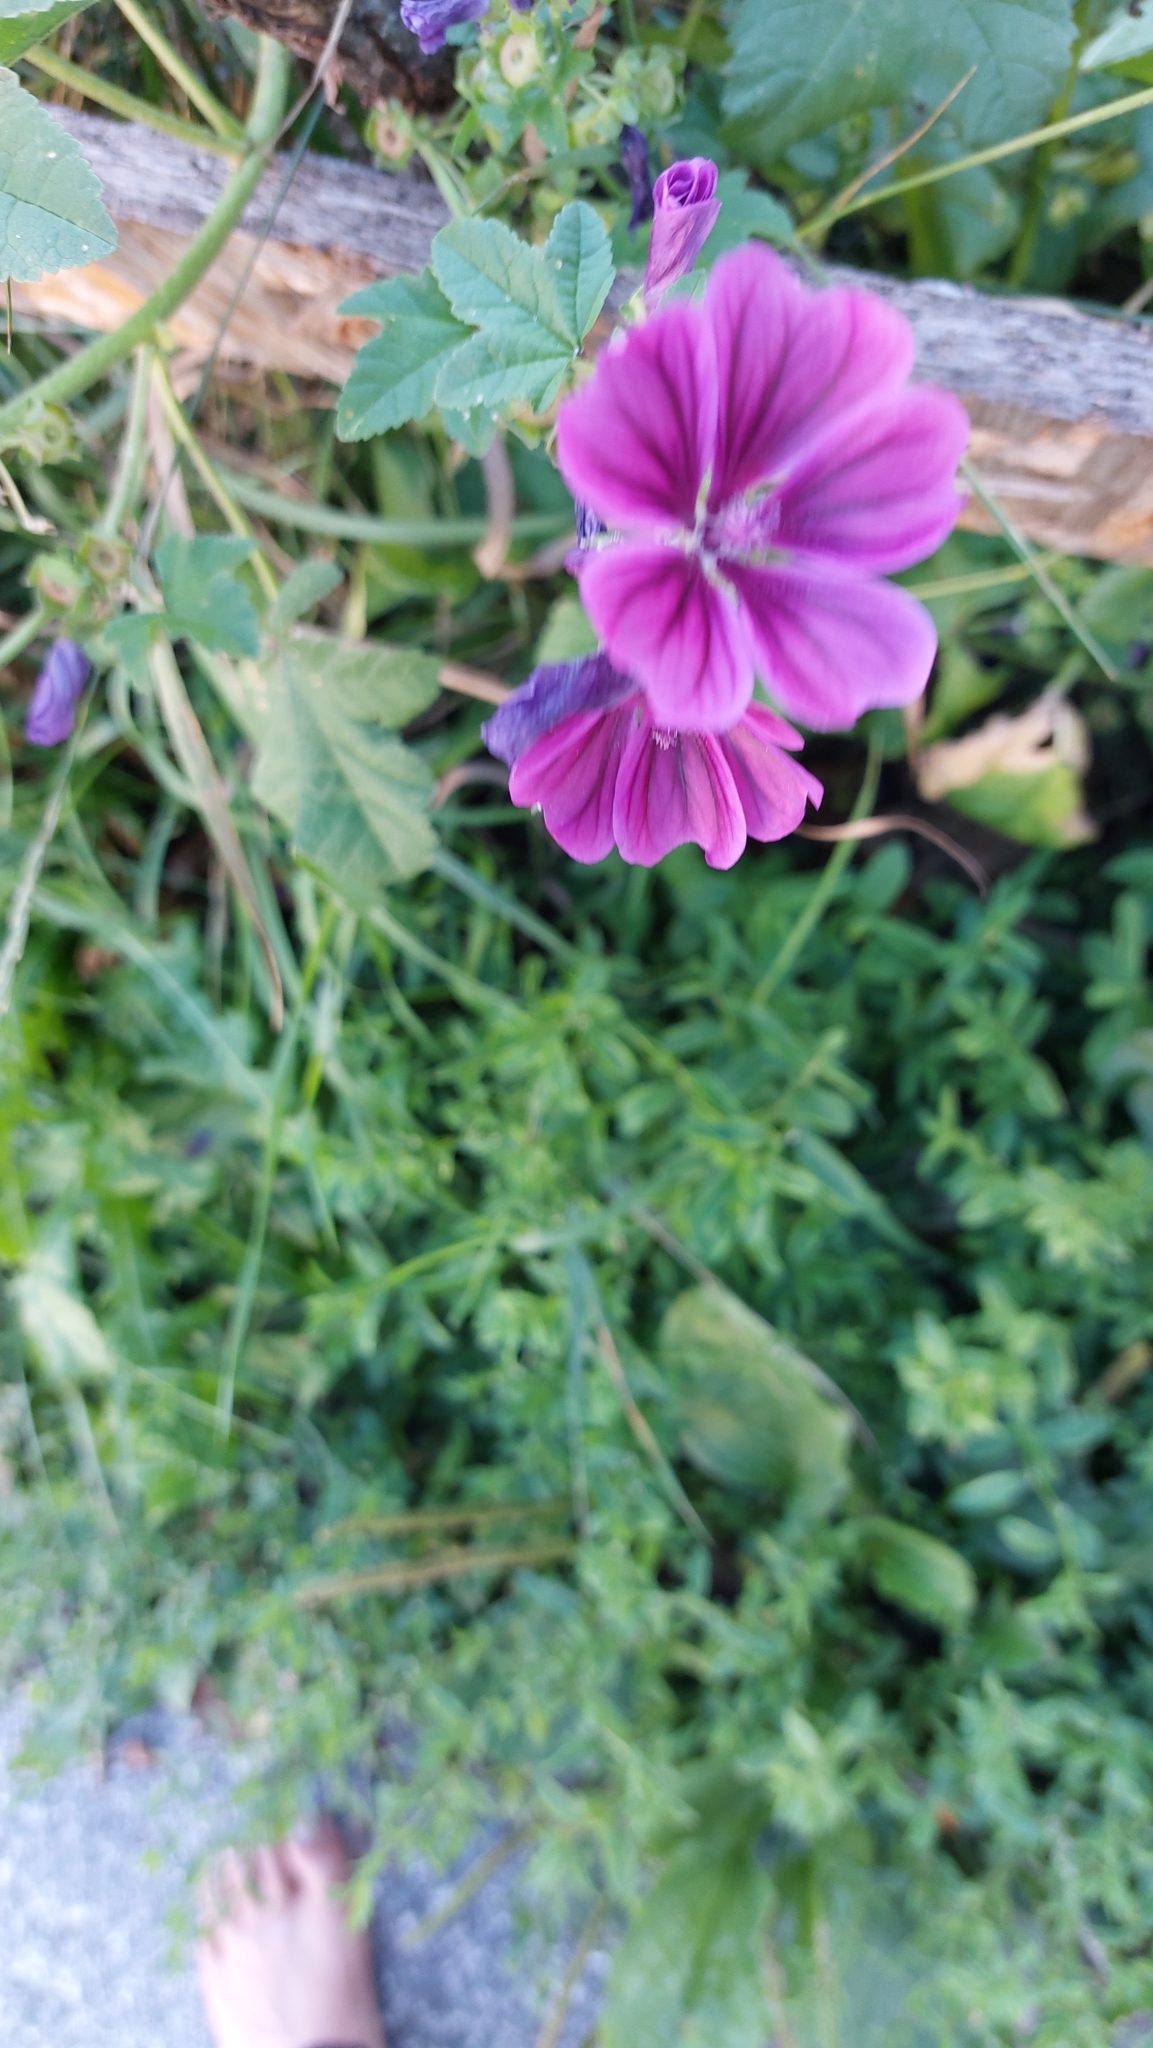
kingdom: Plantae
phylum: Tracheophyta
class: Magnoliopsida
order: Malvales
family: Malvaceae
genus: Malva
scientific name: Malva sylvestris
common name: Common mallow
